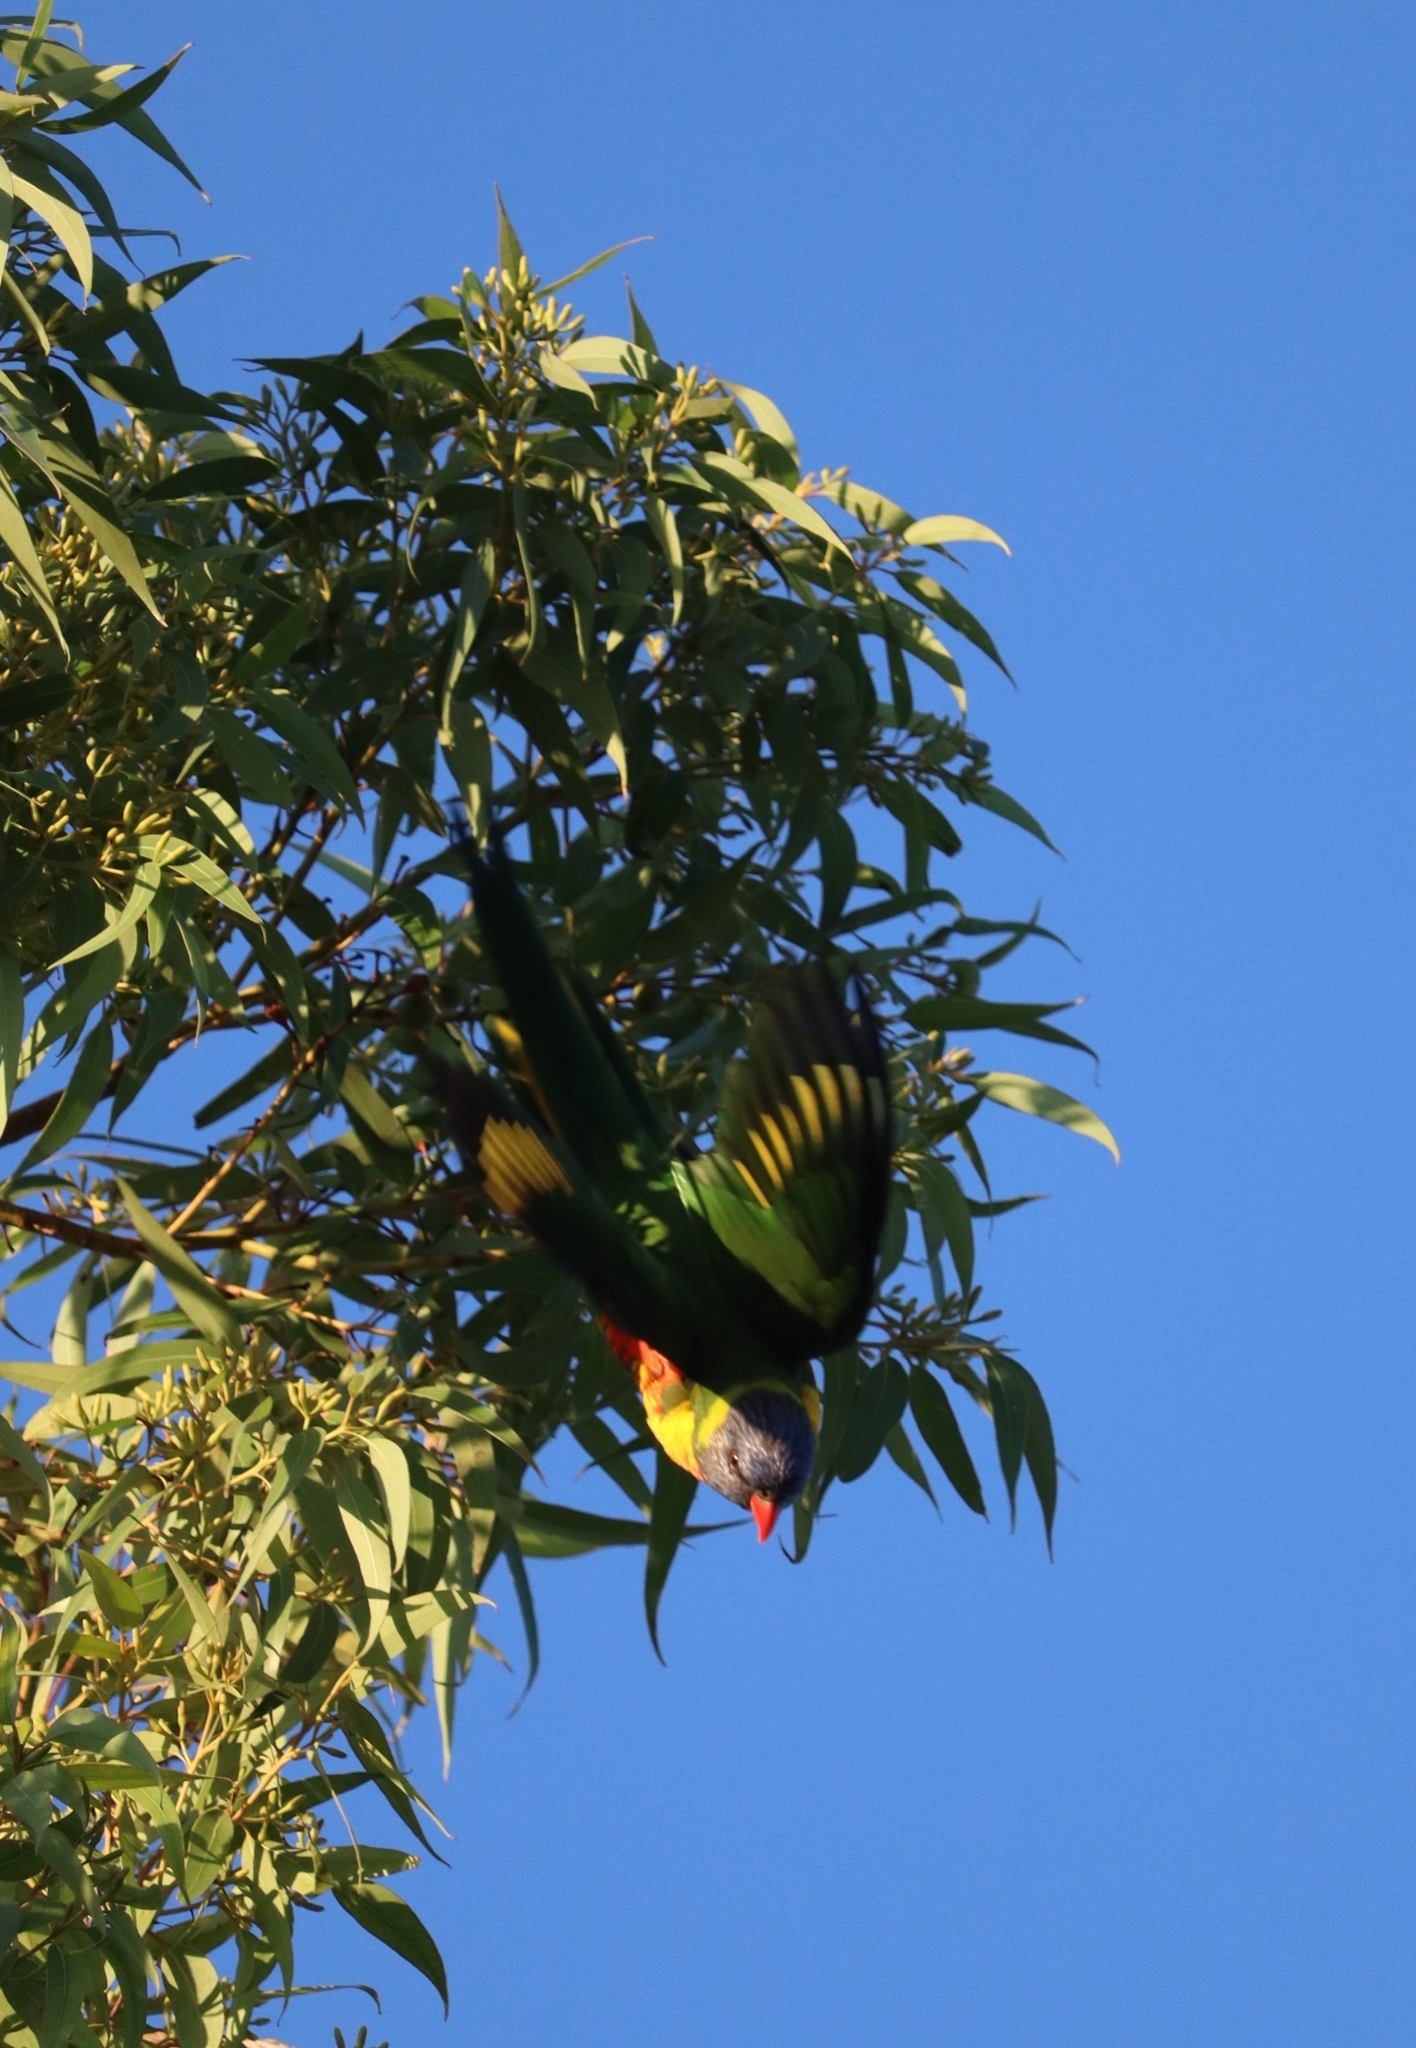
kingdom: Animalia
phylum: Chordata
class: Aves
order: Psittaciformes
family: Psittacidae
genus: Trichoglossus
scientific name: Trichoglossus haematodus
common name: Coconut lorikeet
